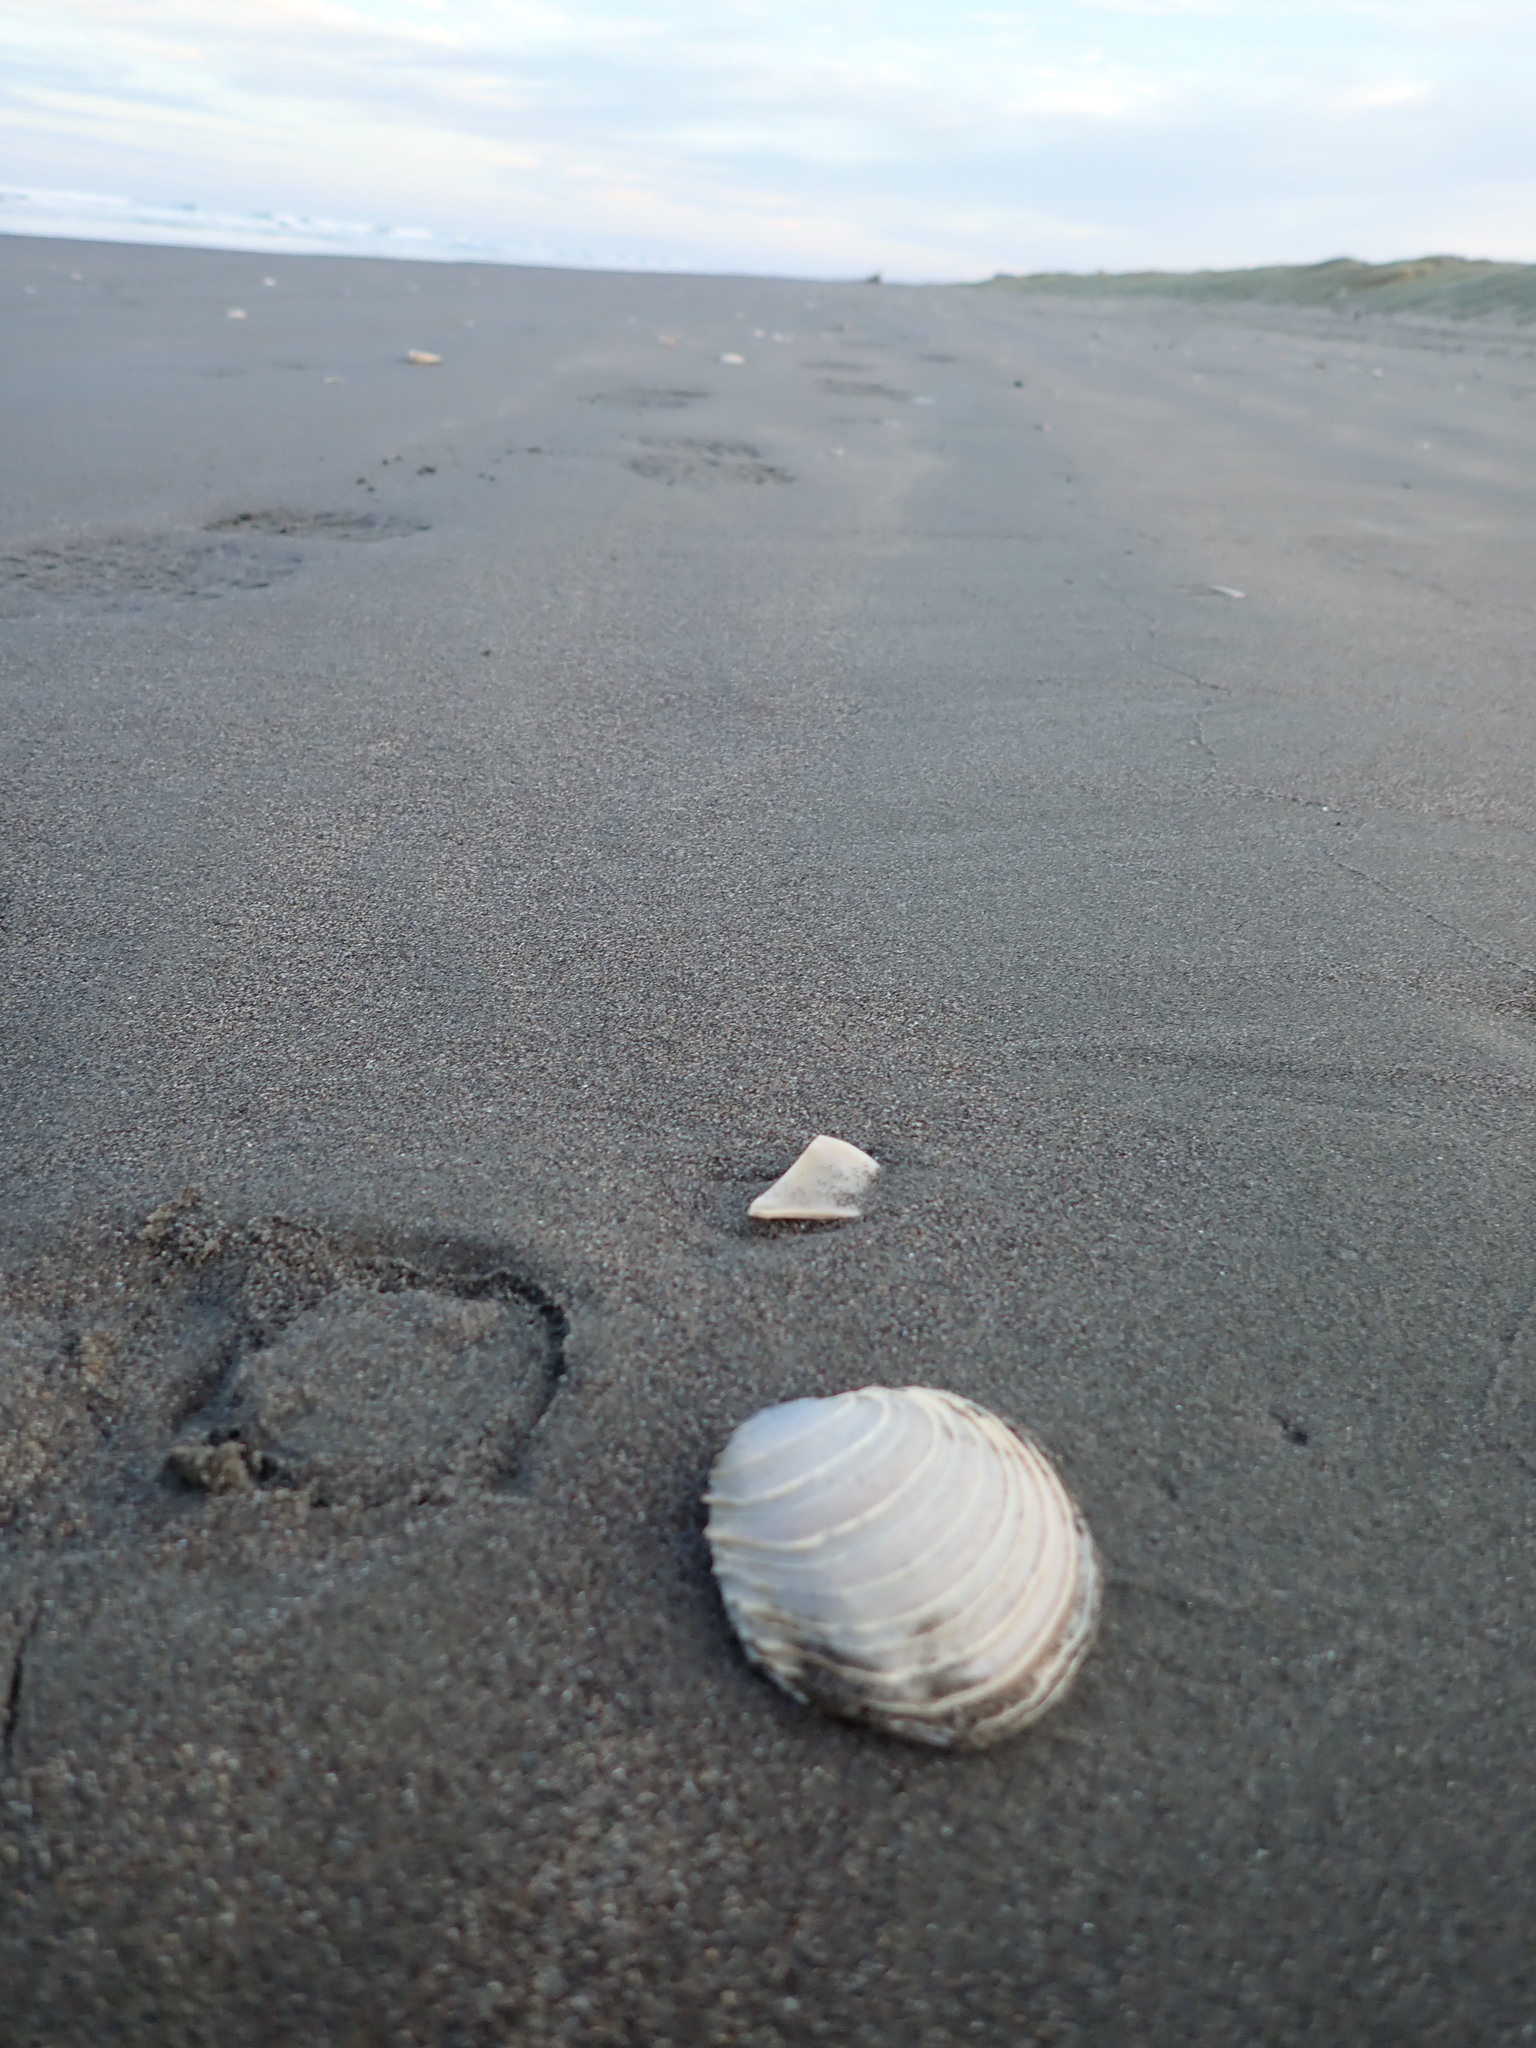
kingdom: Animalia
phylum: Mollusca
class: Bivalvia
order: Venerida
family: Veneridae
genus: Bassina
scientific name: Bassina yatei
